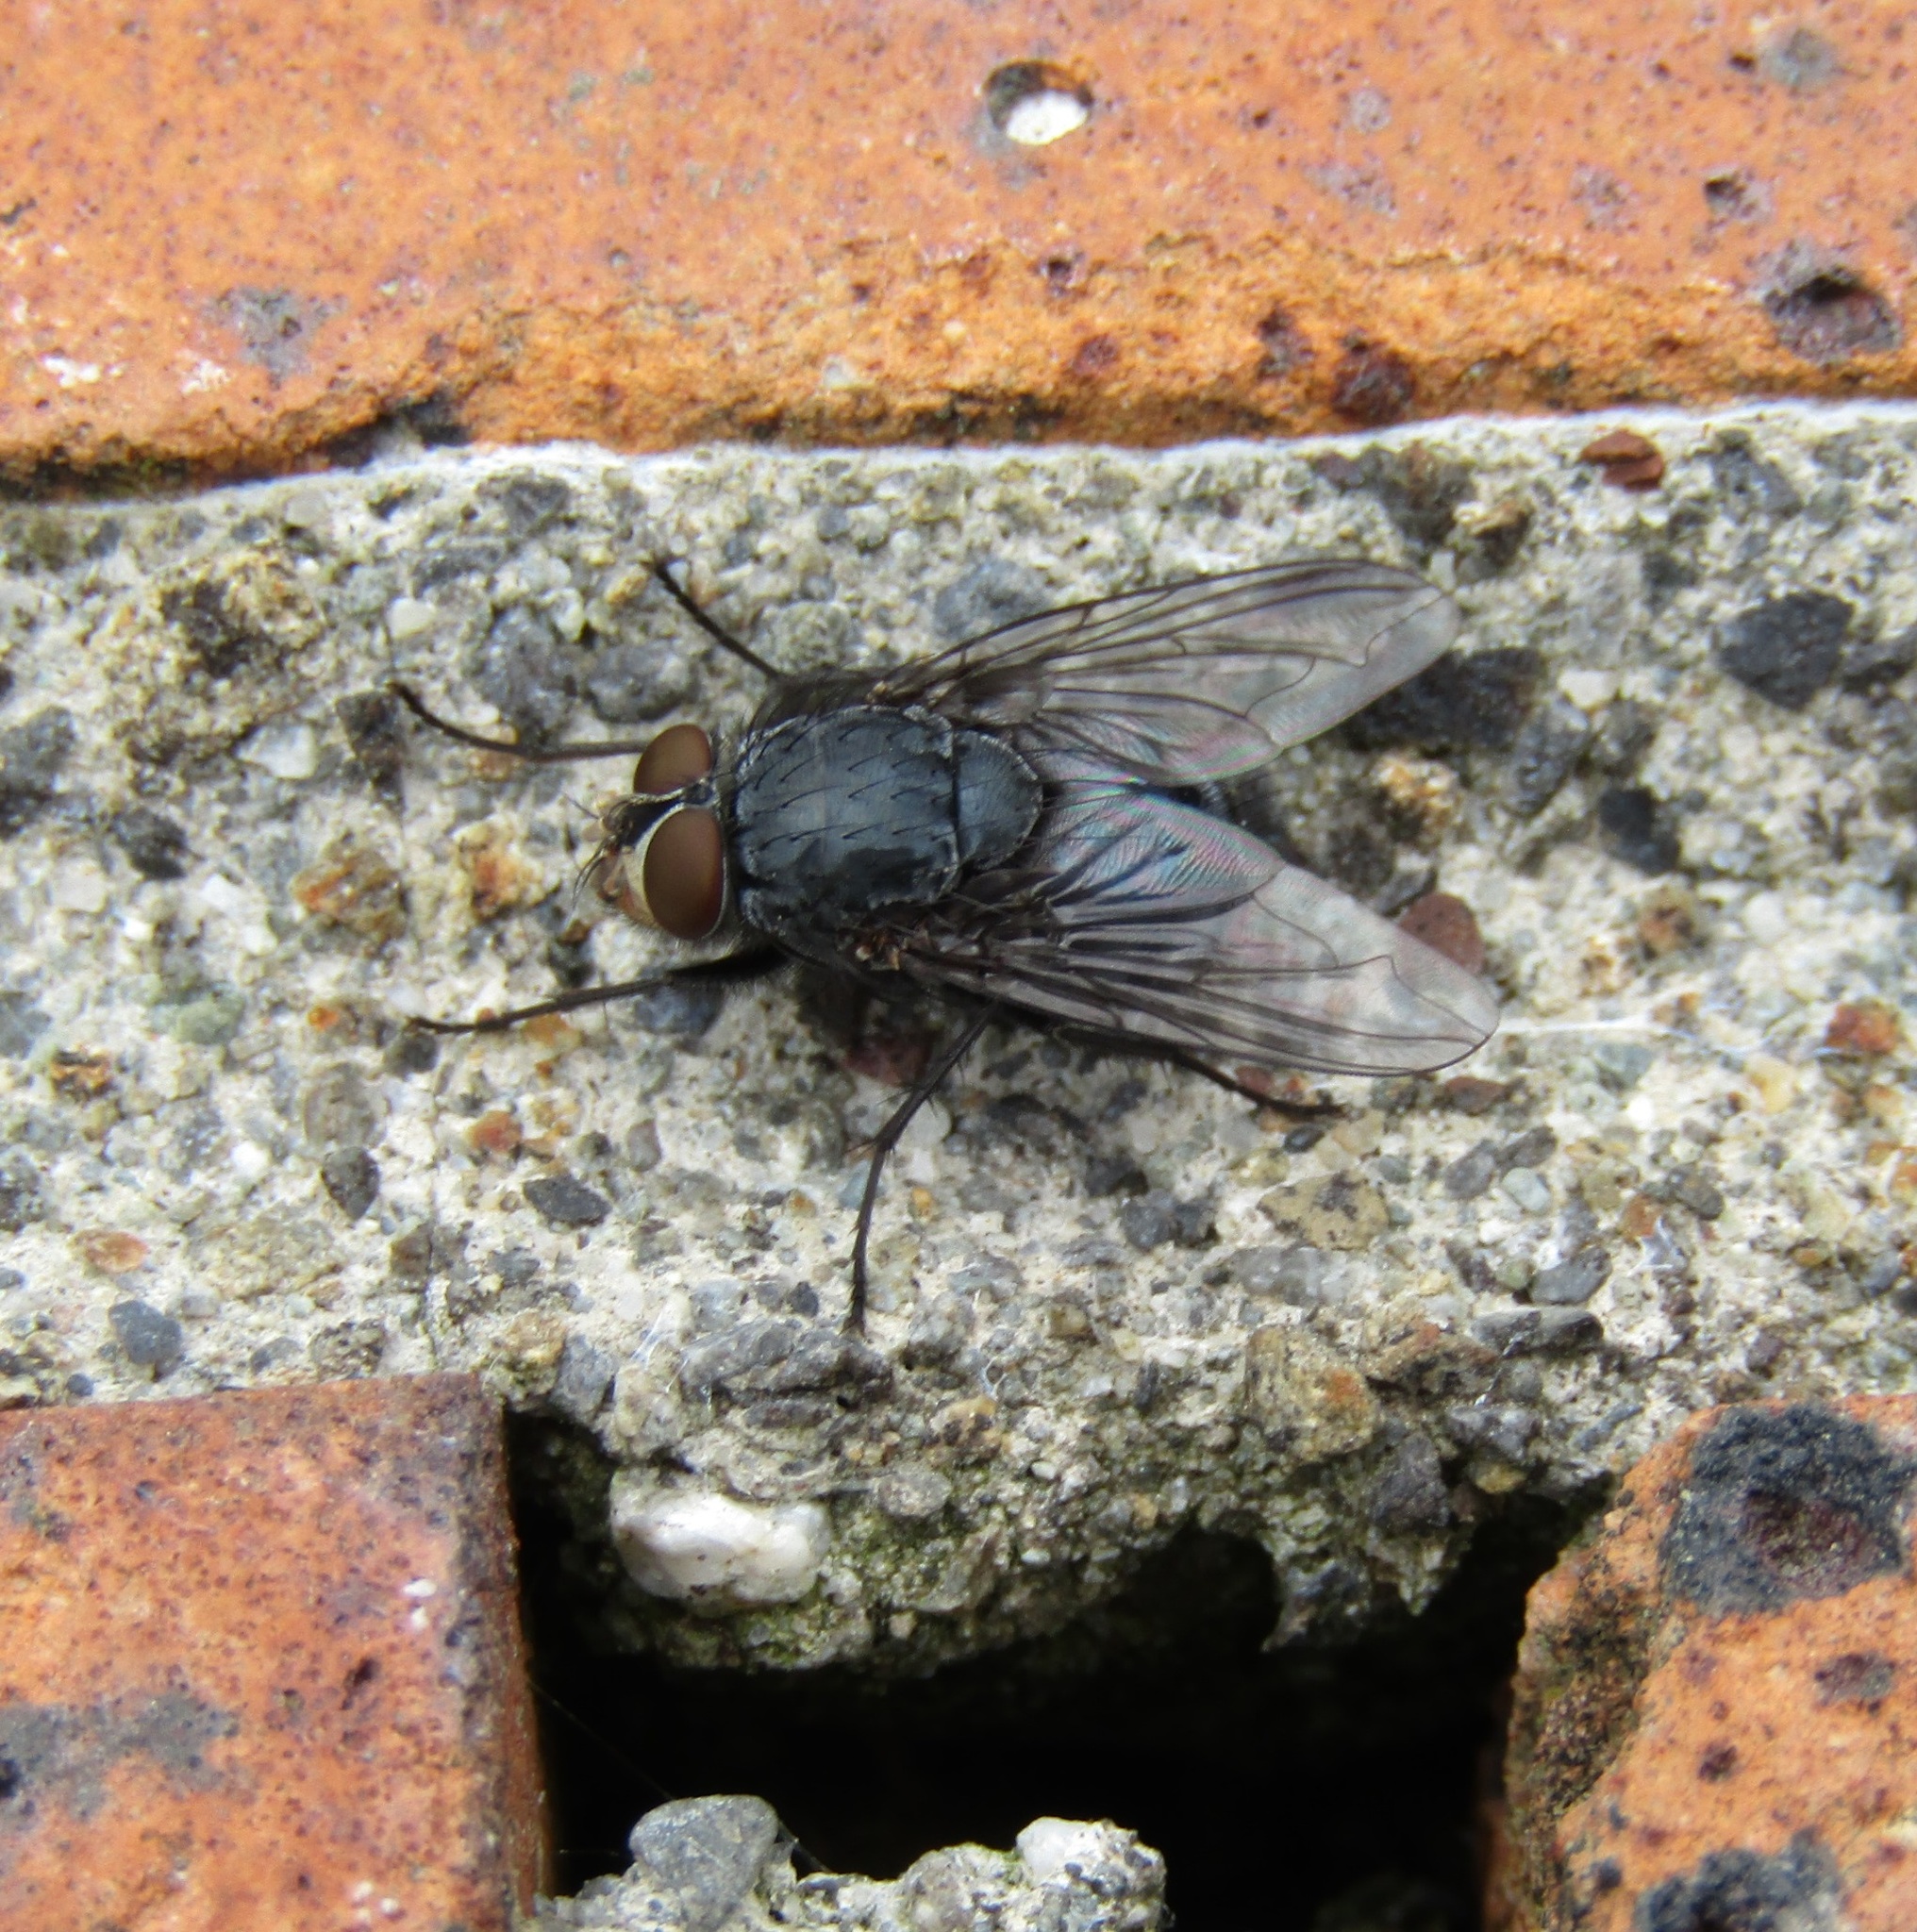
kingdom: Animalia
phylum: Arthropoda
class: Insecta
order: Diptera
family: Calliphoridae
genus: Calliphora
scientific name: Calliphora vicina
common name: Common blow flie
